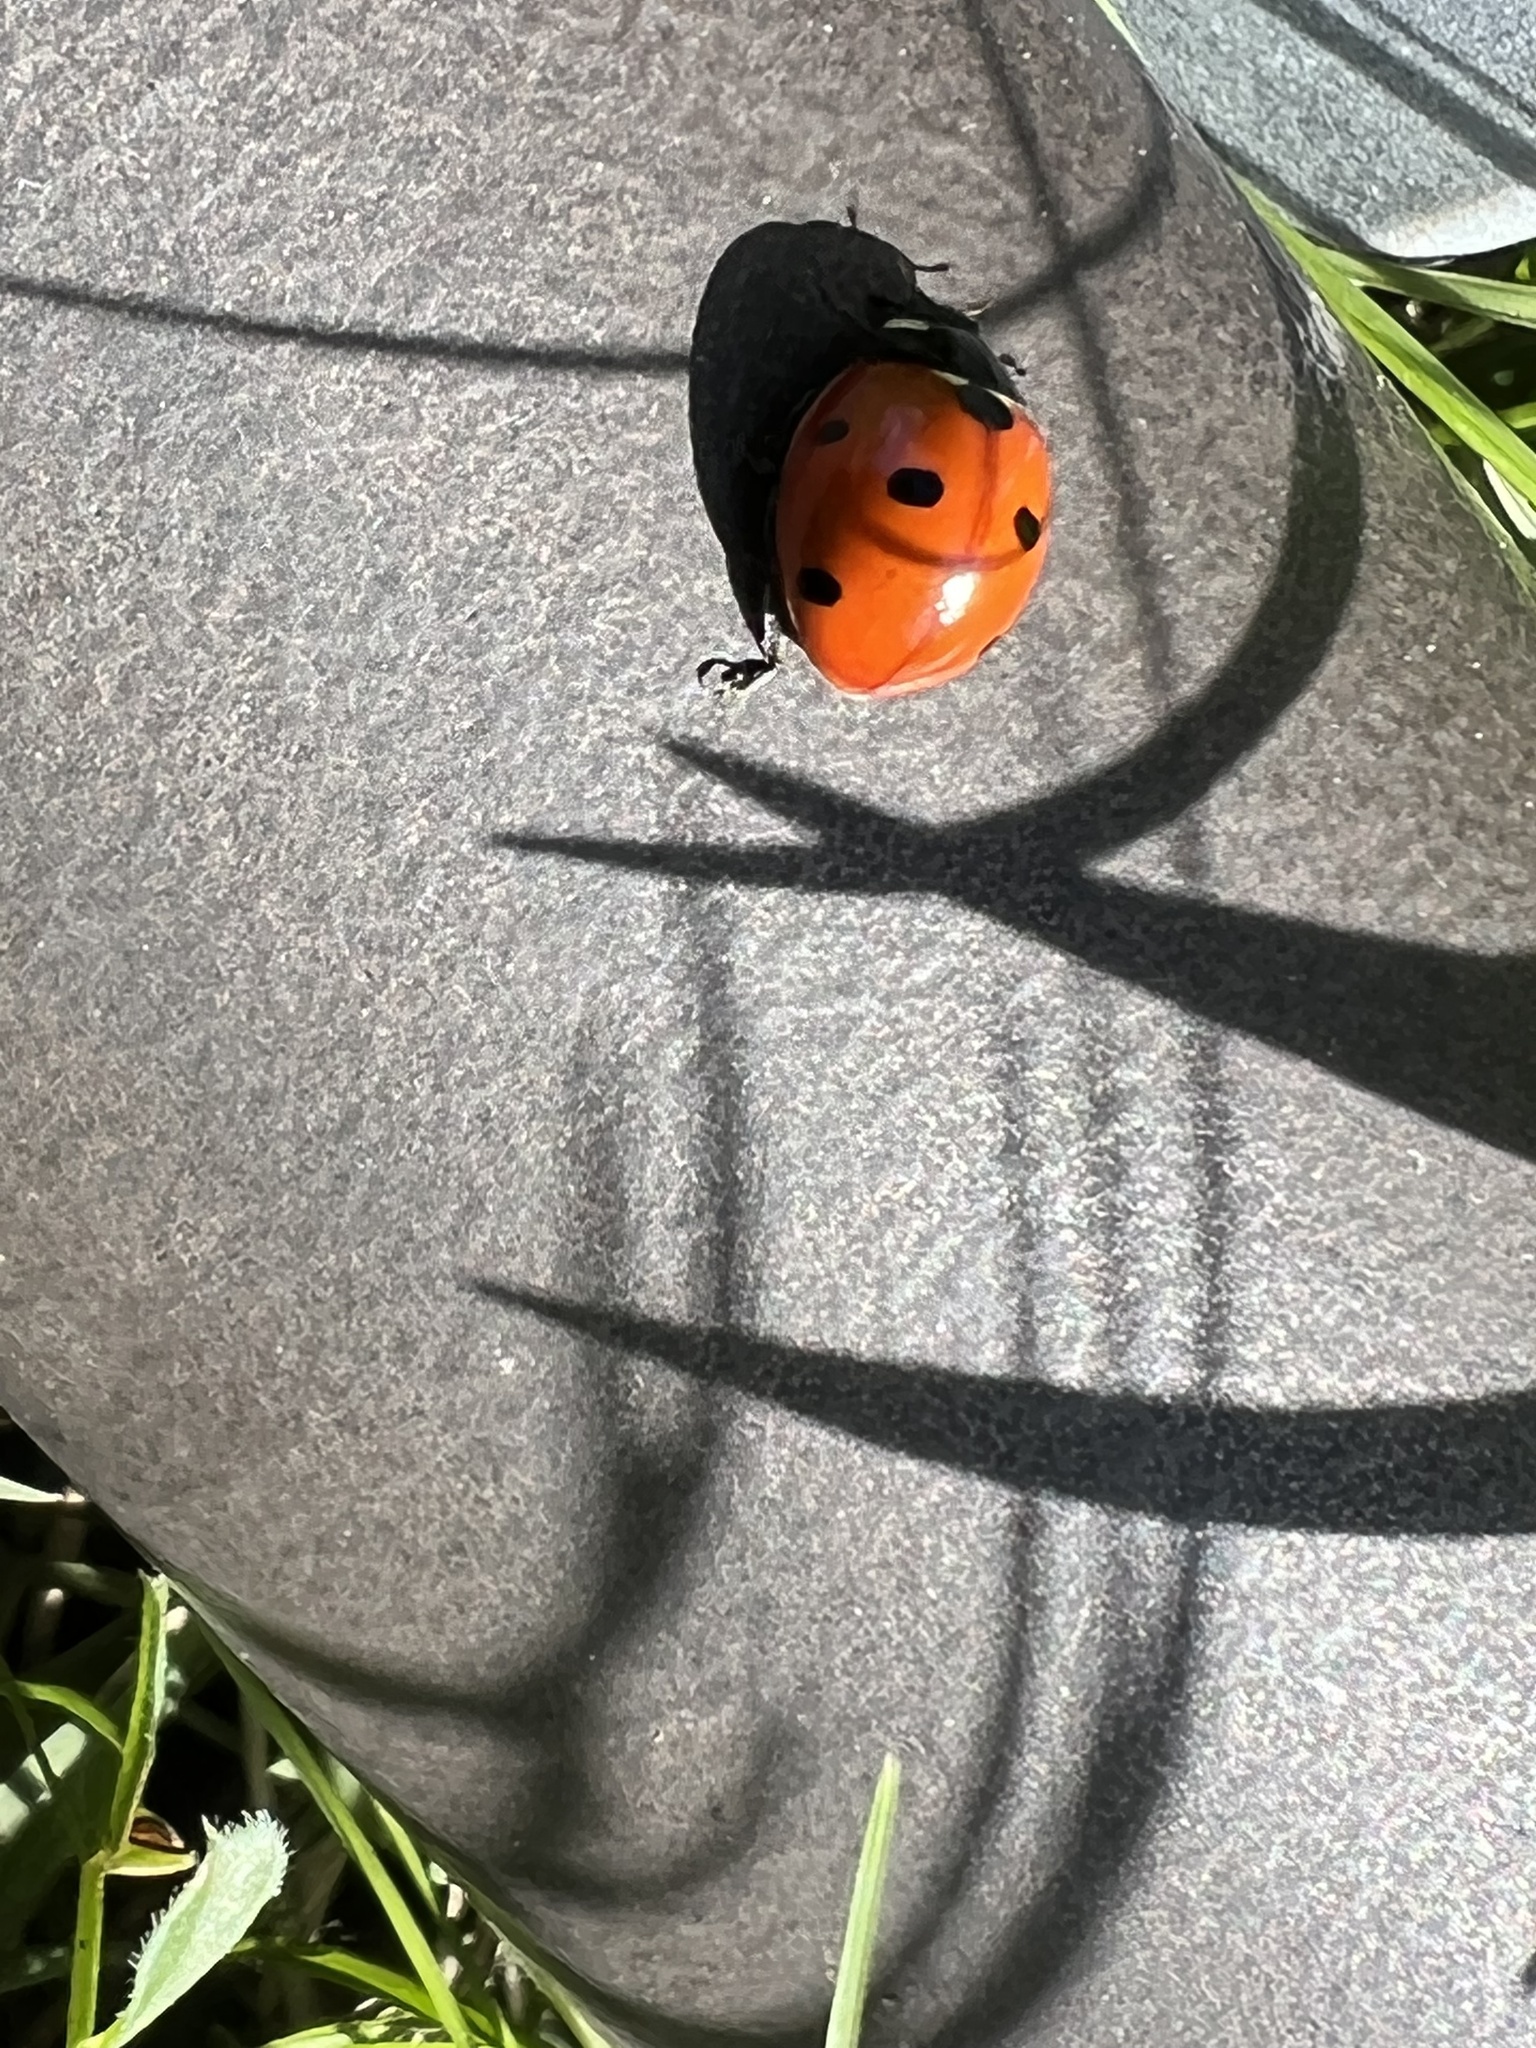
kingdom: Animalia
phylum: Arthropoda
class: Insecta
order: Coleoptera
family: Coccinellidae
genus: Coccinella
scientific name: Coccinella septempunctata
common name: Sevenspotted lady beetle
